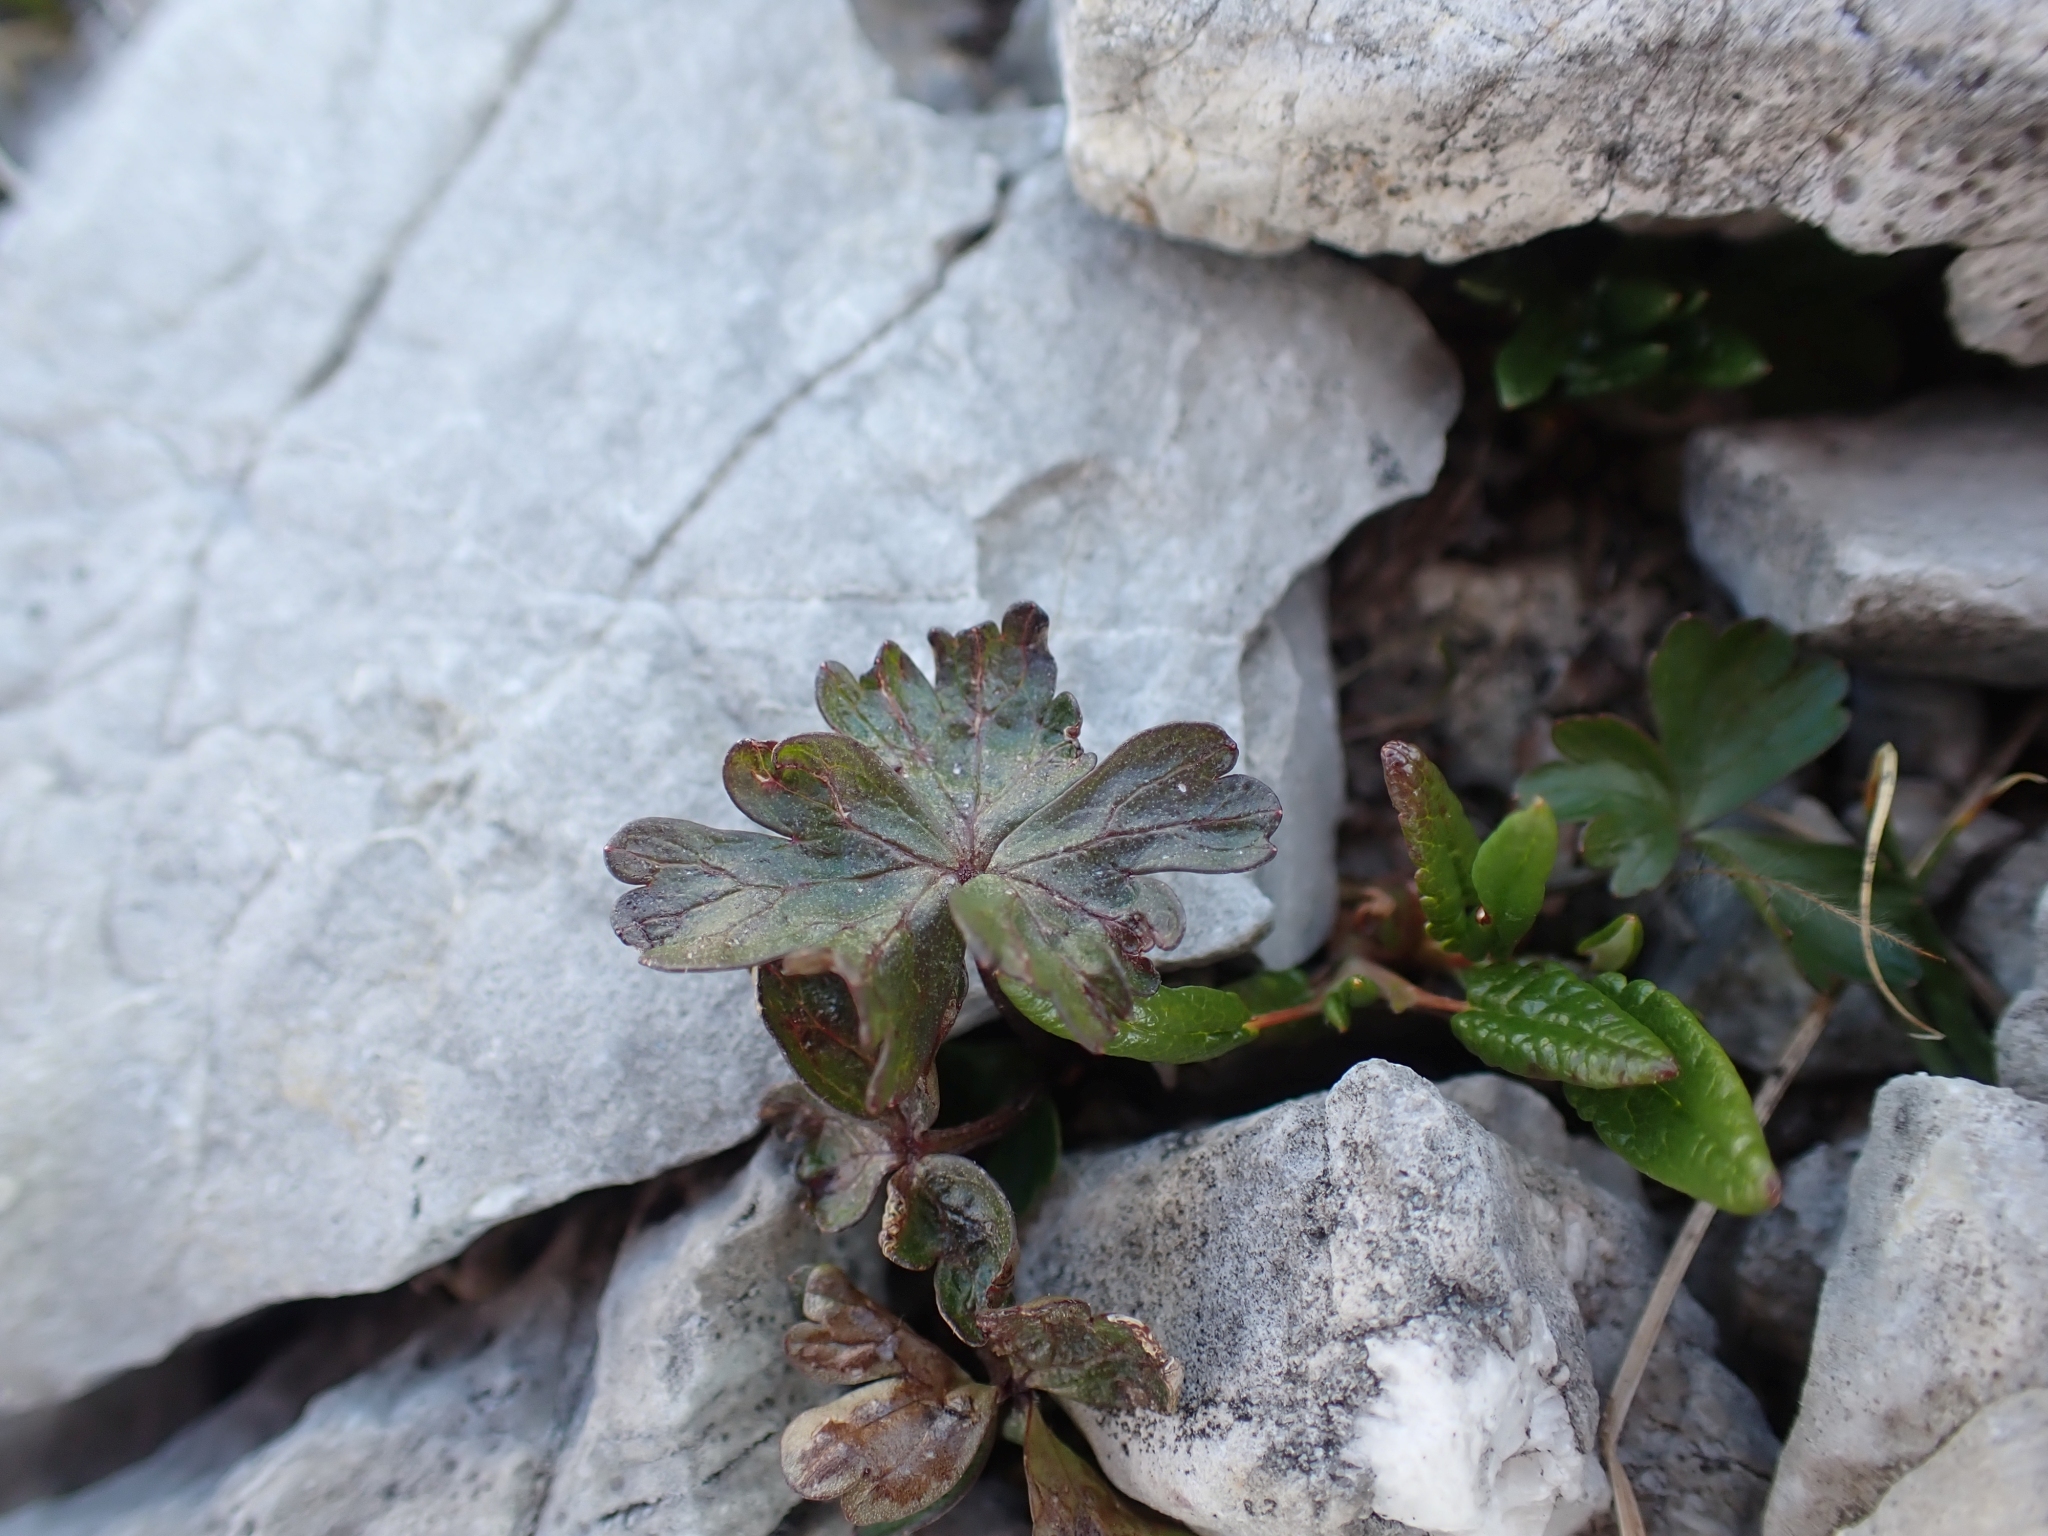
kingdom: Plantae
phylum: Tracheophyta
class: Magnoliopsida
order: Ranunculales
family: Ranunculaceae
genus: Anemone
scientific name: Anemone parviflora
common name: Northern anemone
